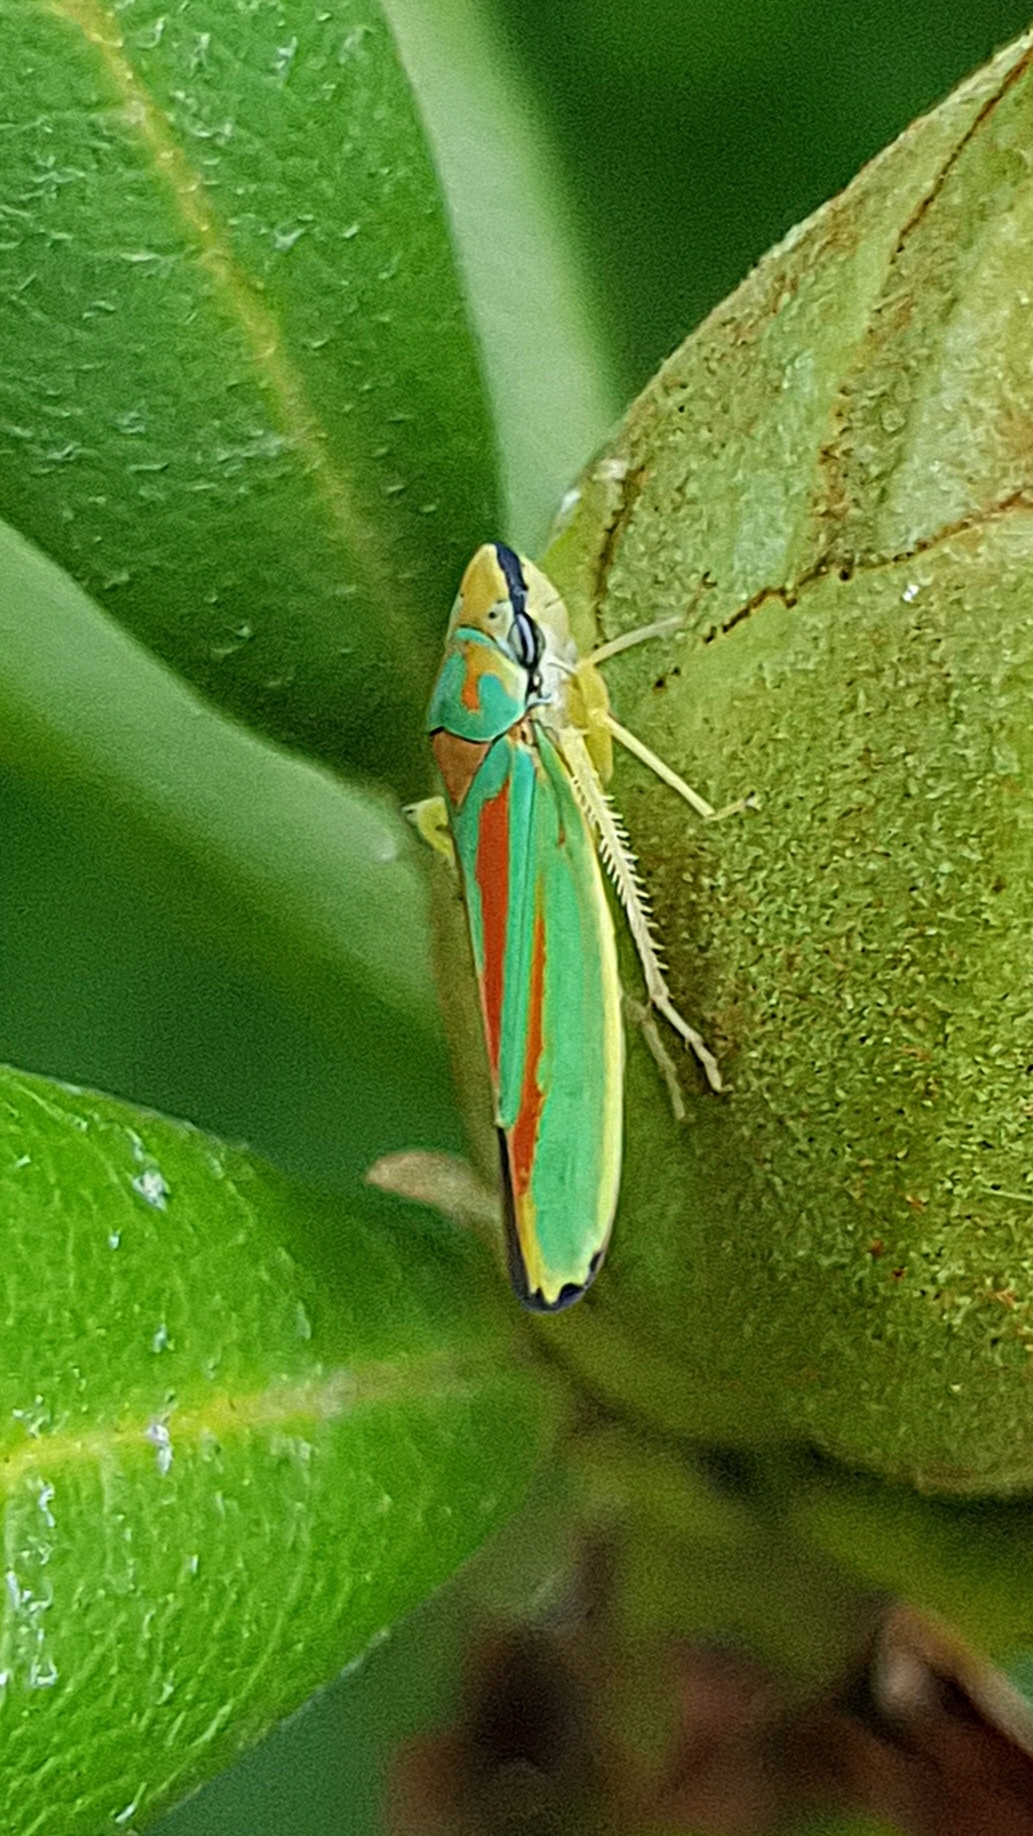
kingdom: Animalia
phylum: Arthropoda
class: Insecta
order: Hemiptera
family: Cicadellidae
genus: Graphocephala
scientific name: Graphocephala fennahi
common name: Rhododendron leafhopper
